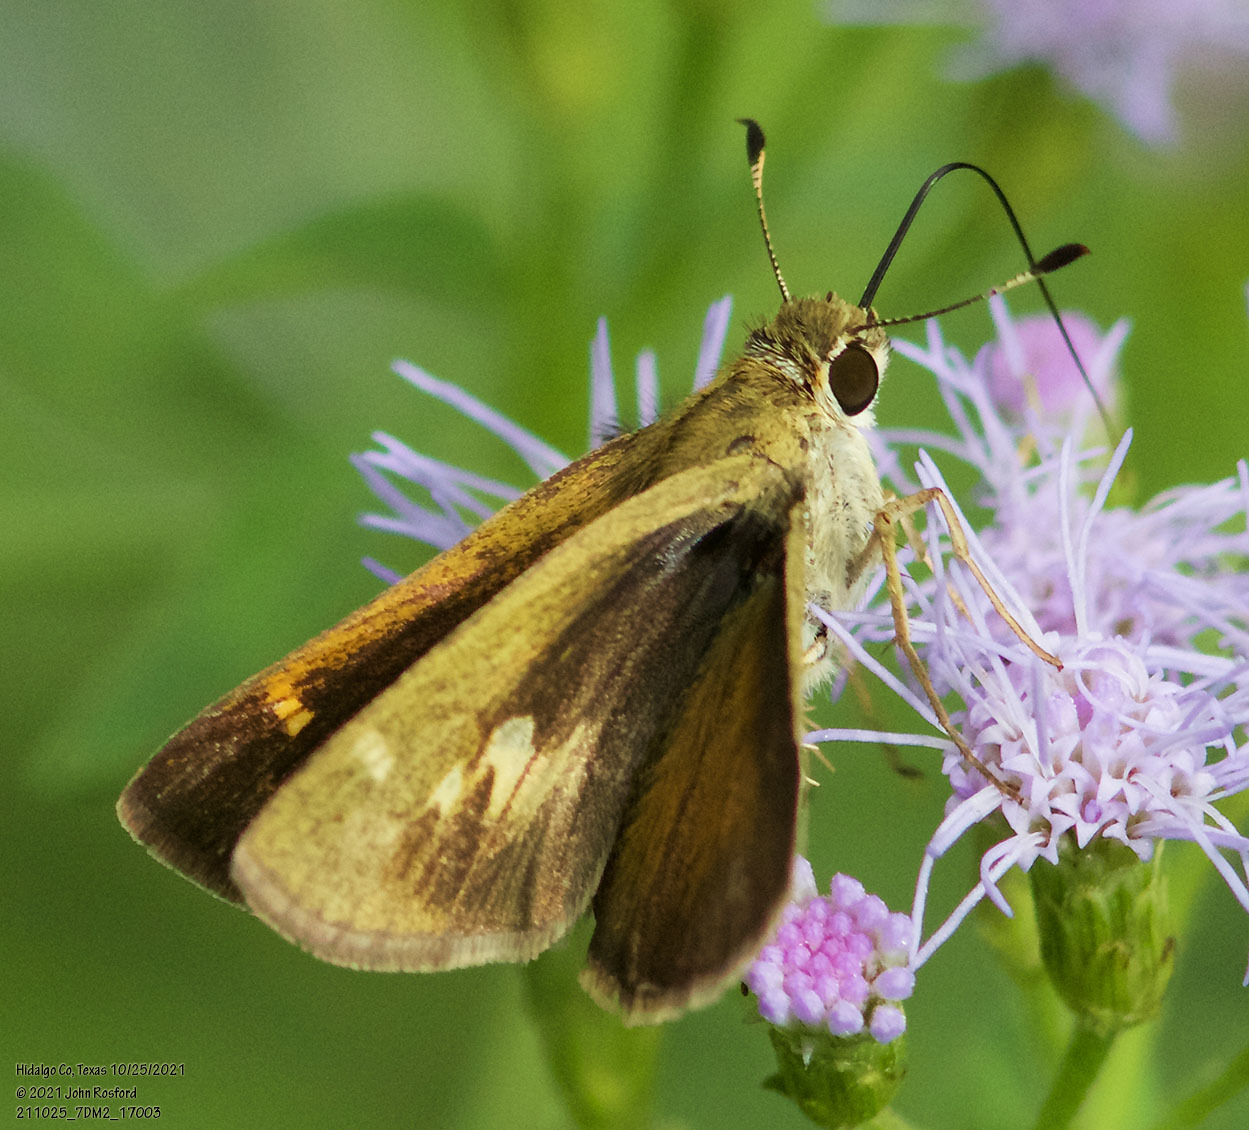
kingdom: Animalia
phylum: Arthropoda
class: Insecta
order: Lepidoptera
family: Hesperiidae
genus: Polites
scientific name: Polites vibex
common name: Whirlabout
